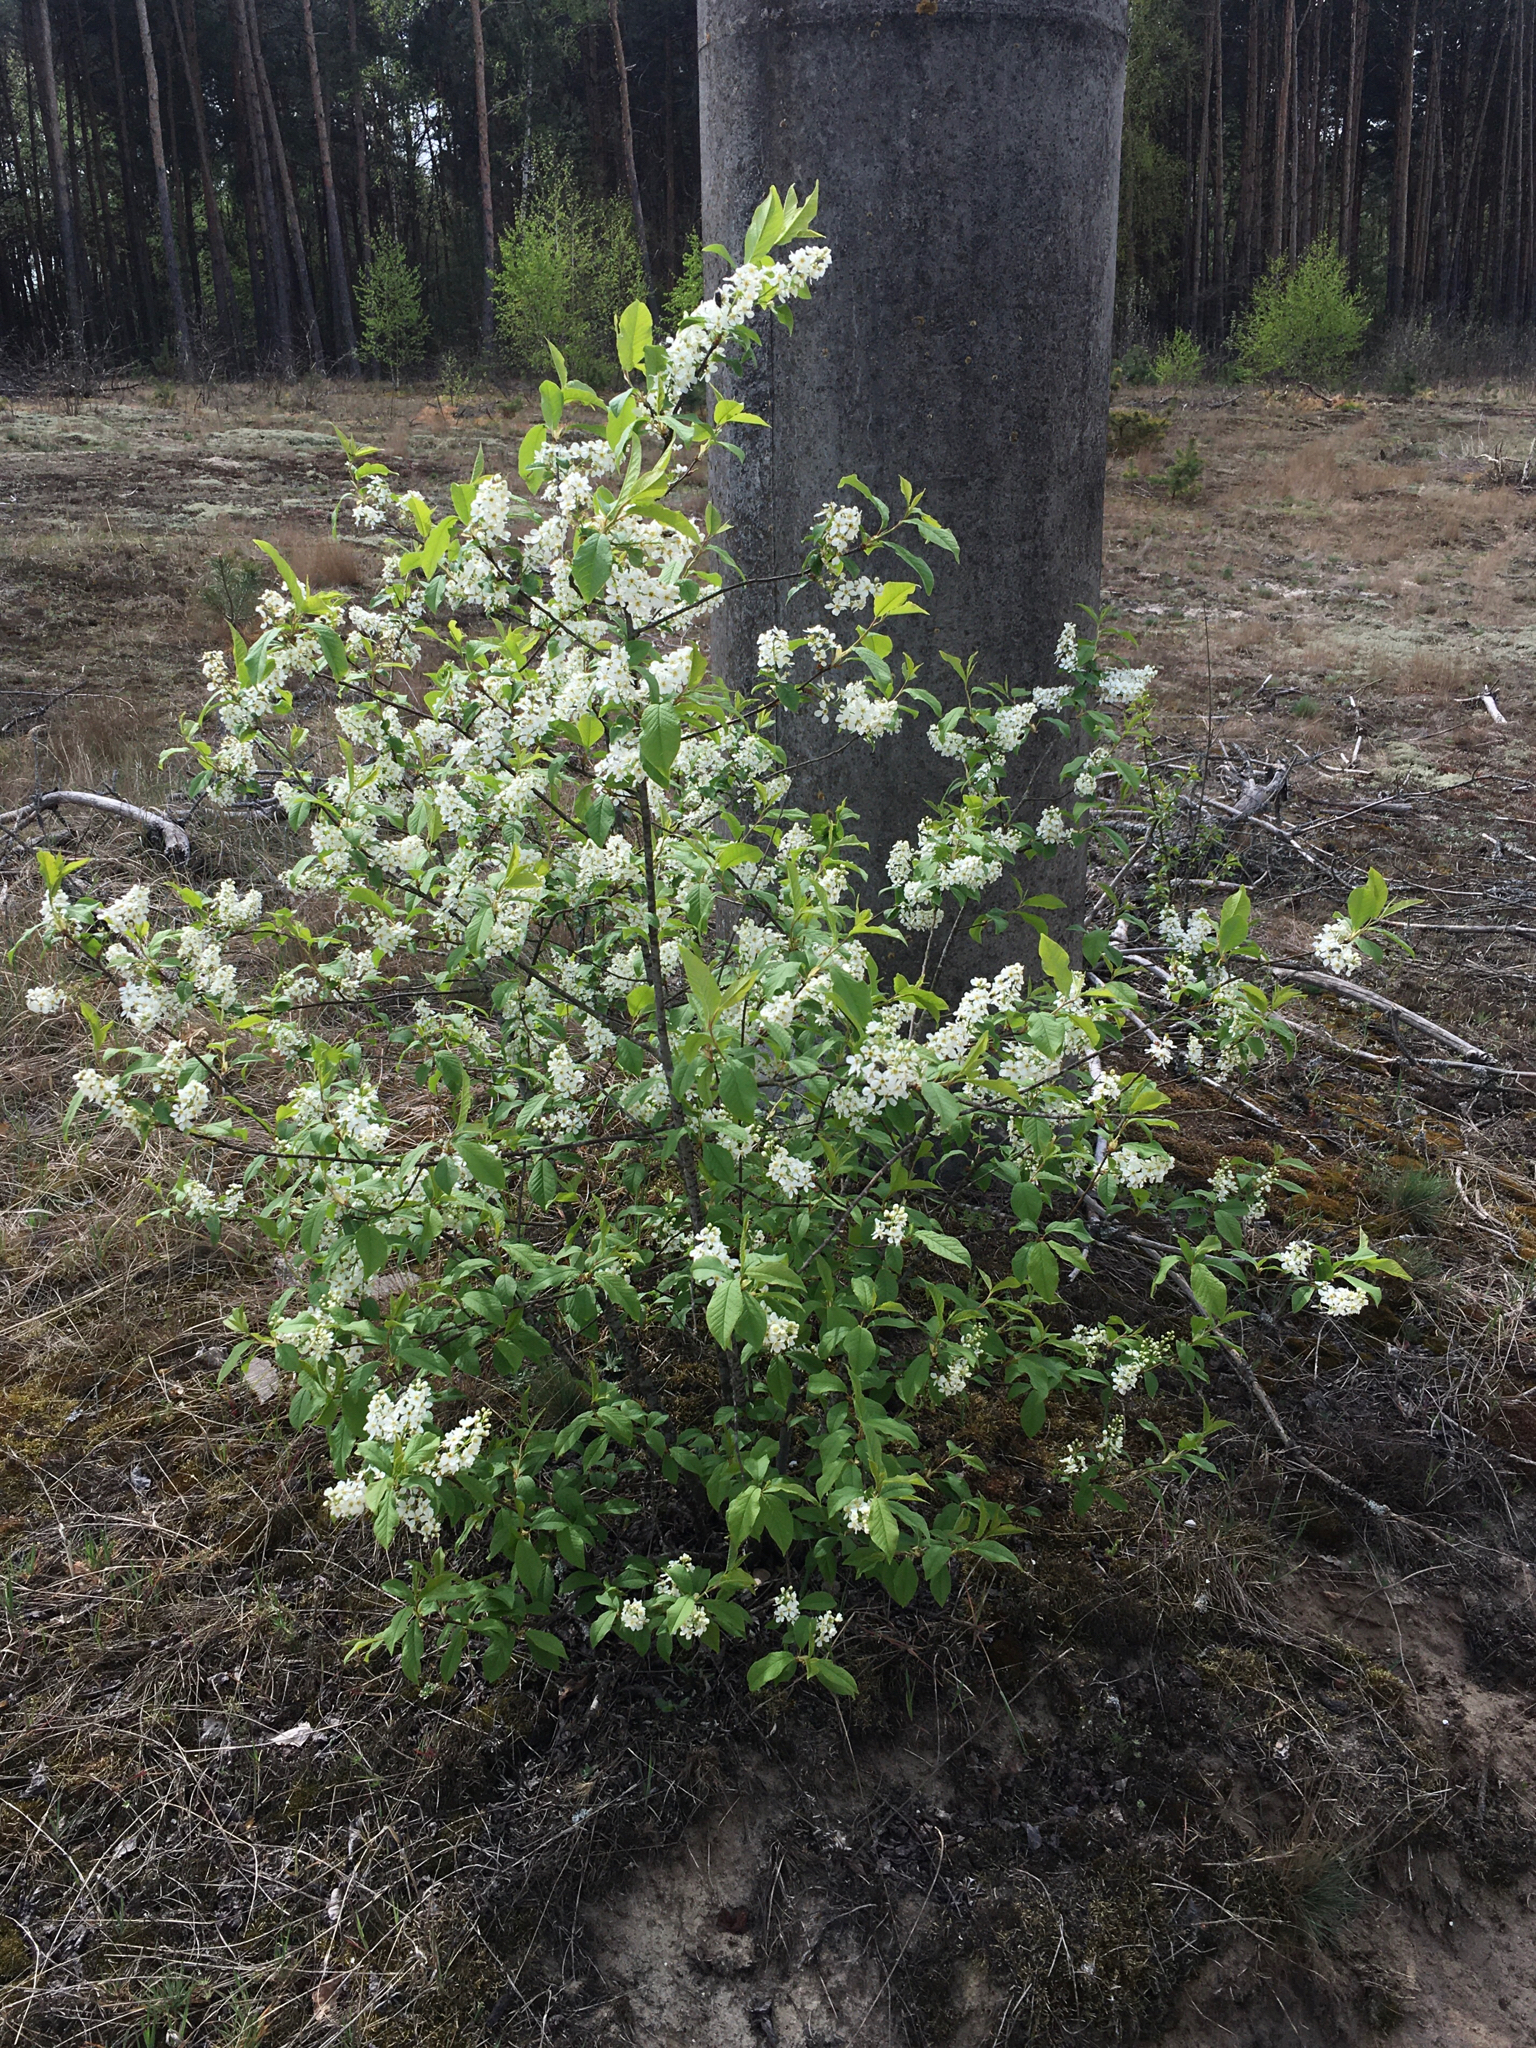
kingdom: Plantae
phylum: Tracheophyta
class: Magnoliopsida
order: Rosales
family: Rosaceae
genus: Prunus
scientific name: Prunus padus
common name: Bird cherry
